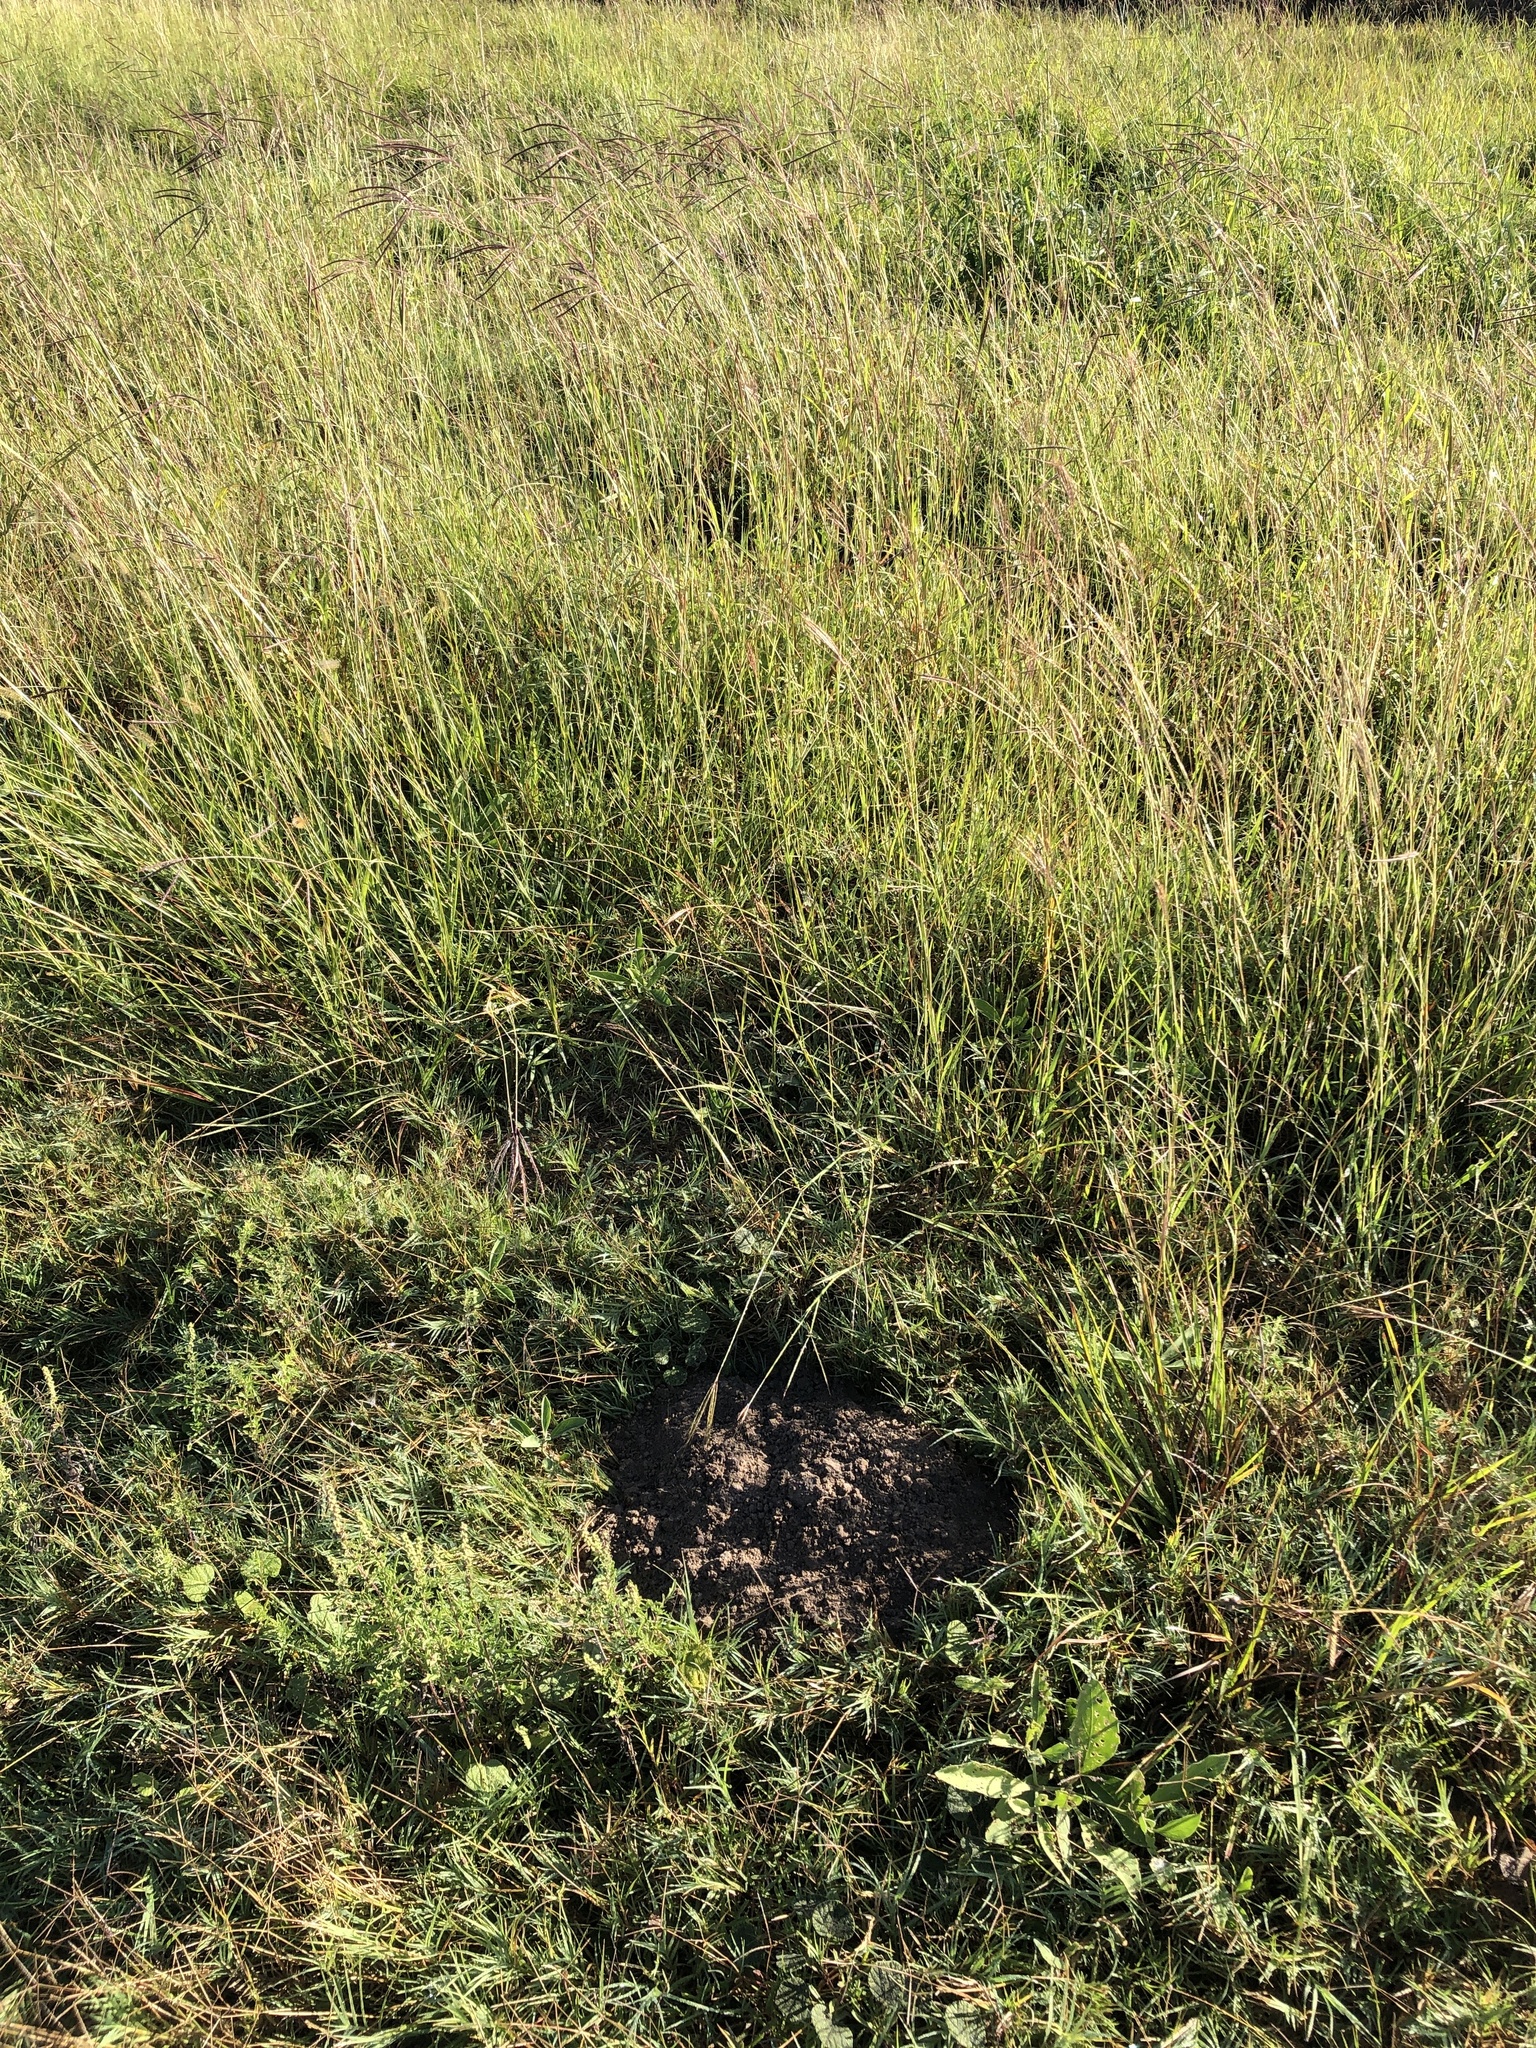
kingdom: Animalia
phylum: Chordata
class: Mammalia
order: Rodentia
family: Geomyidae
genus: Geomys
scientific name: Geomys personatus
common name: Texas pocket gopher
